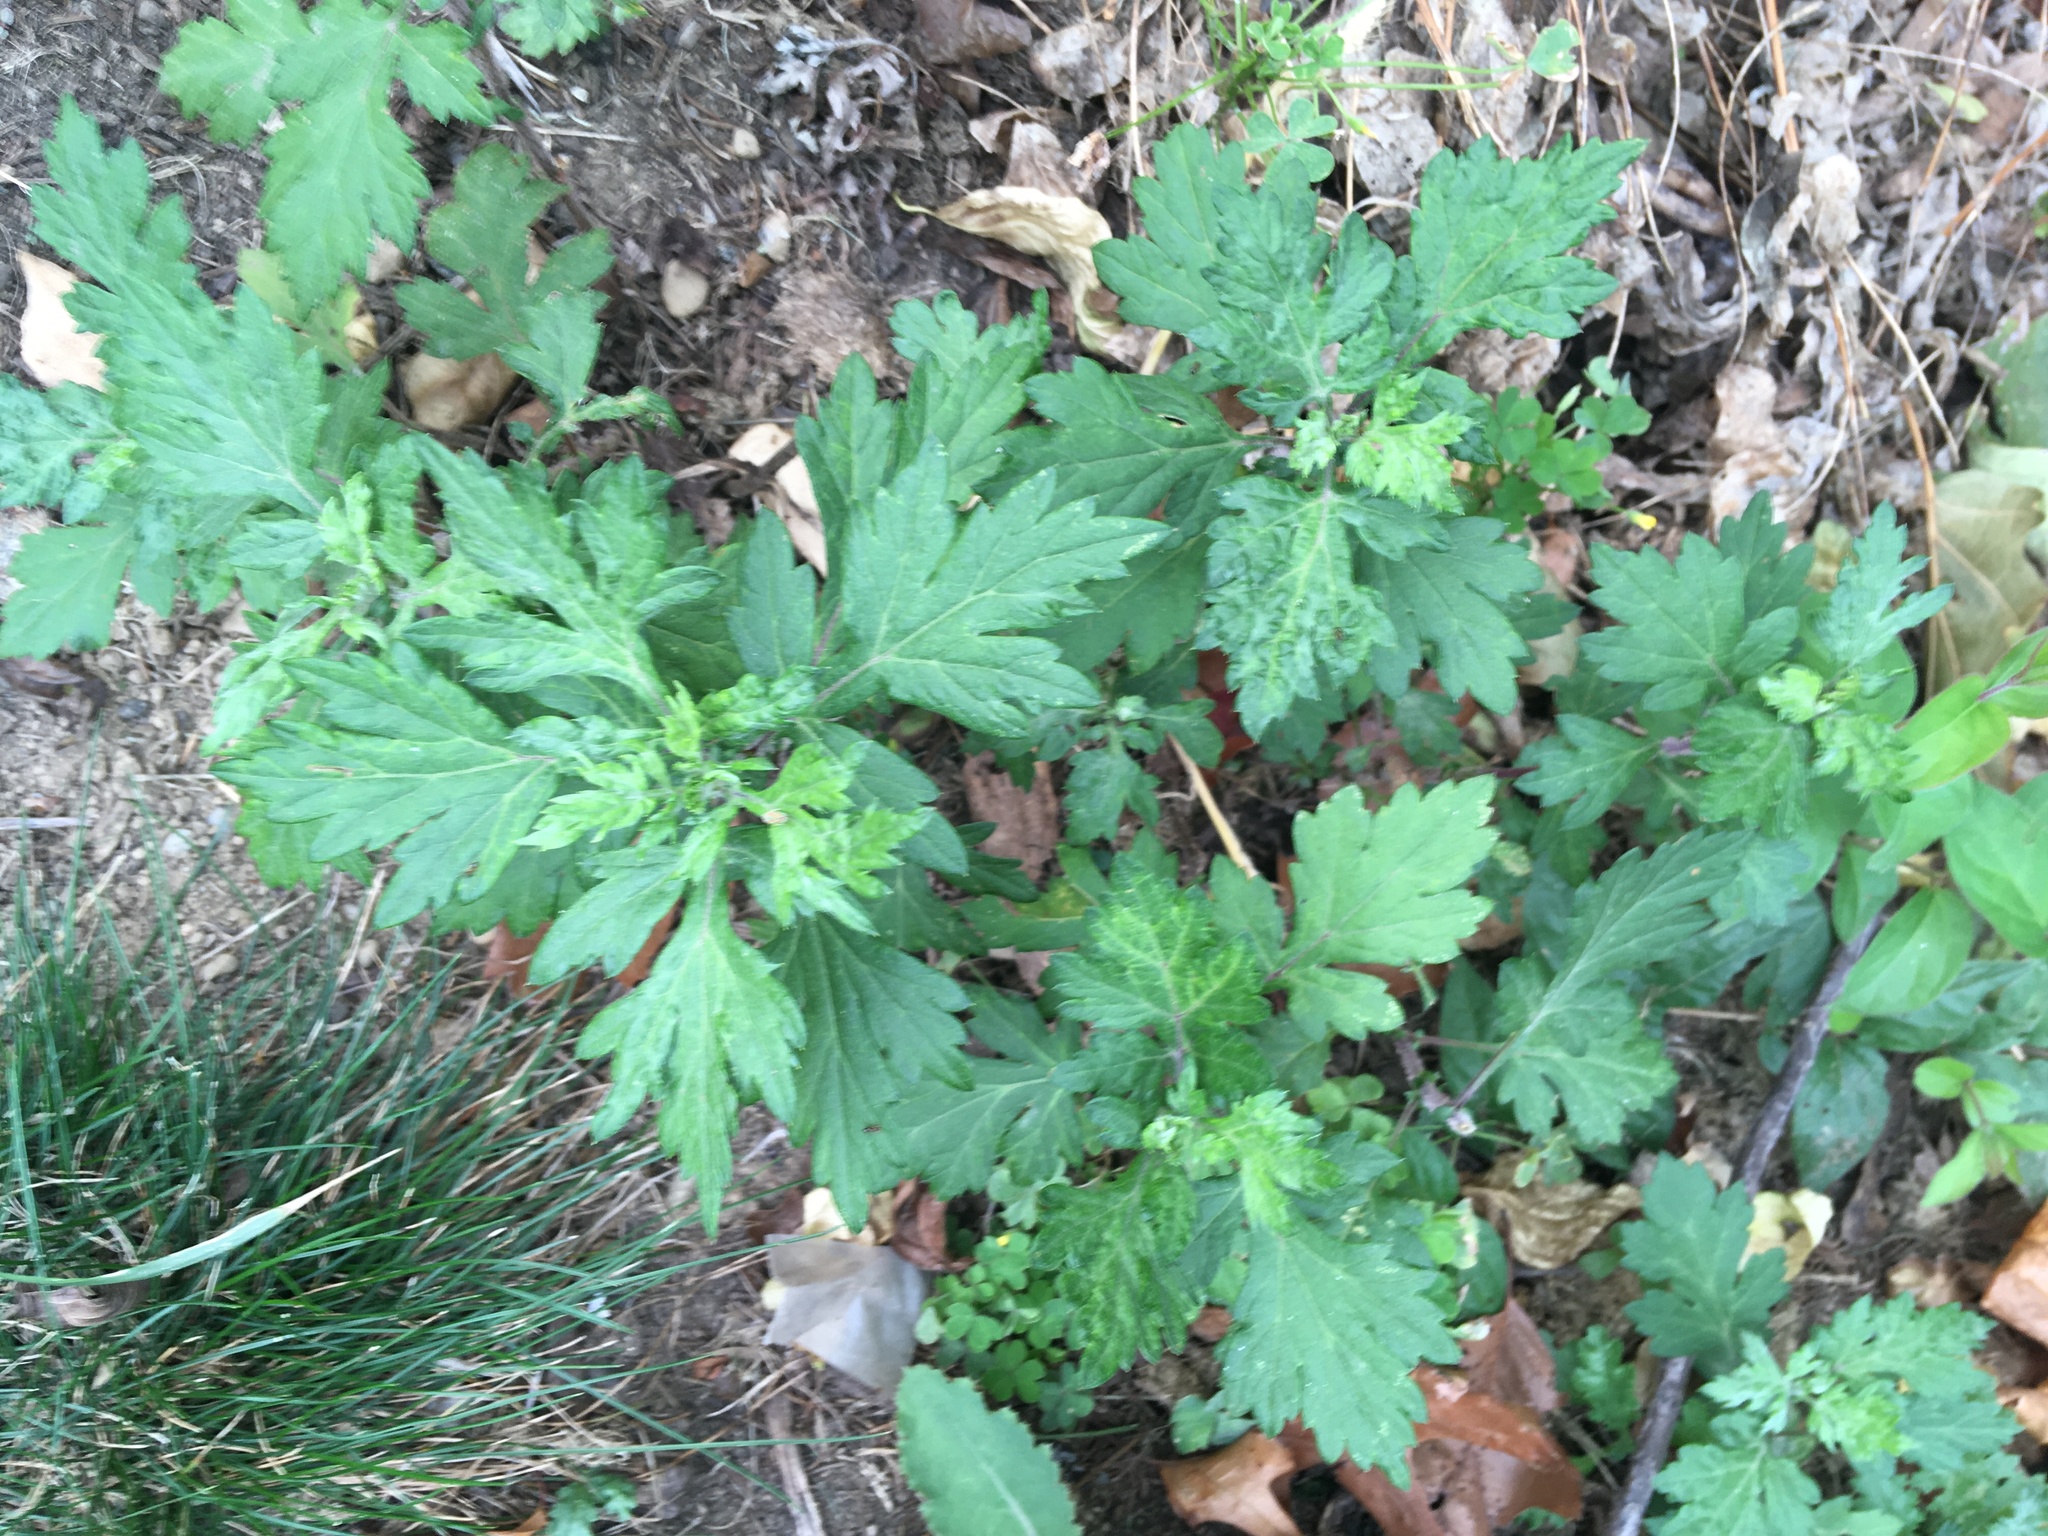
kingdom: Plantae
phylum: Tracheophyta
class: Magnoliopsida
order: Asterales
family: Asteraceae
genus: Artemisia
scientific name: Artemisia vulgaris
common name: Mugwort
